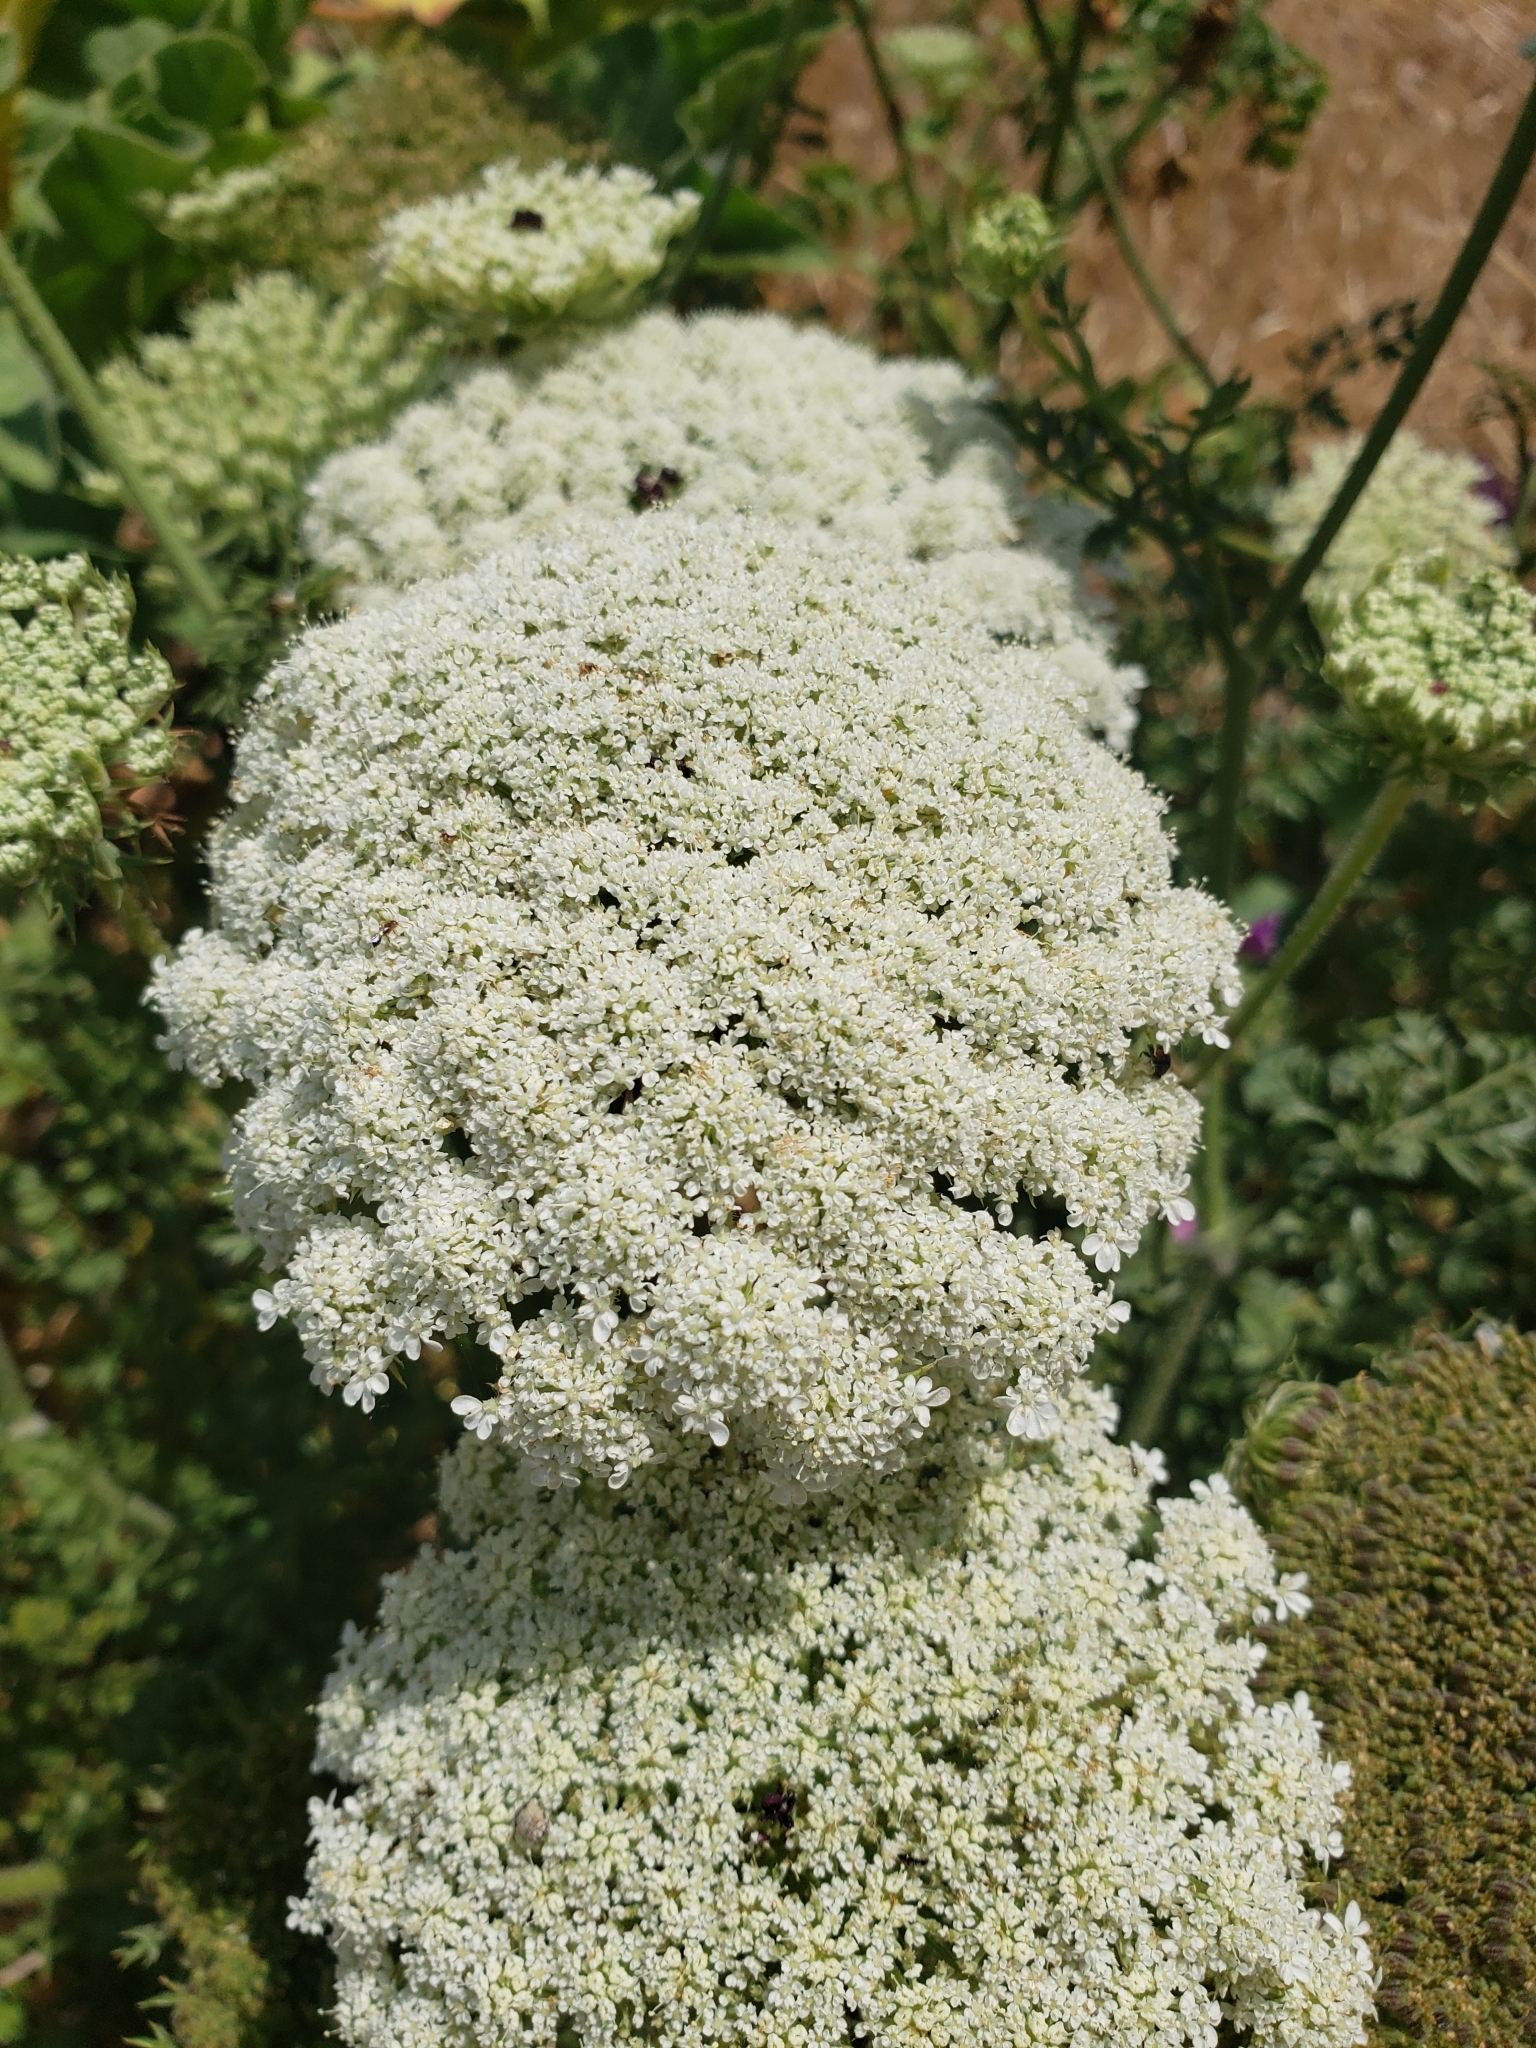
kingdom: Plantae
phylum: Tracheophyta
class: Magnoliopsida
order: Apiales
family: Apiaceae
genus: Daucus
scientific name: Daucus carota
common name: Wild carrot
